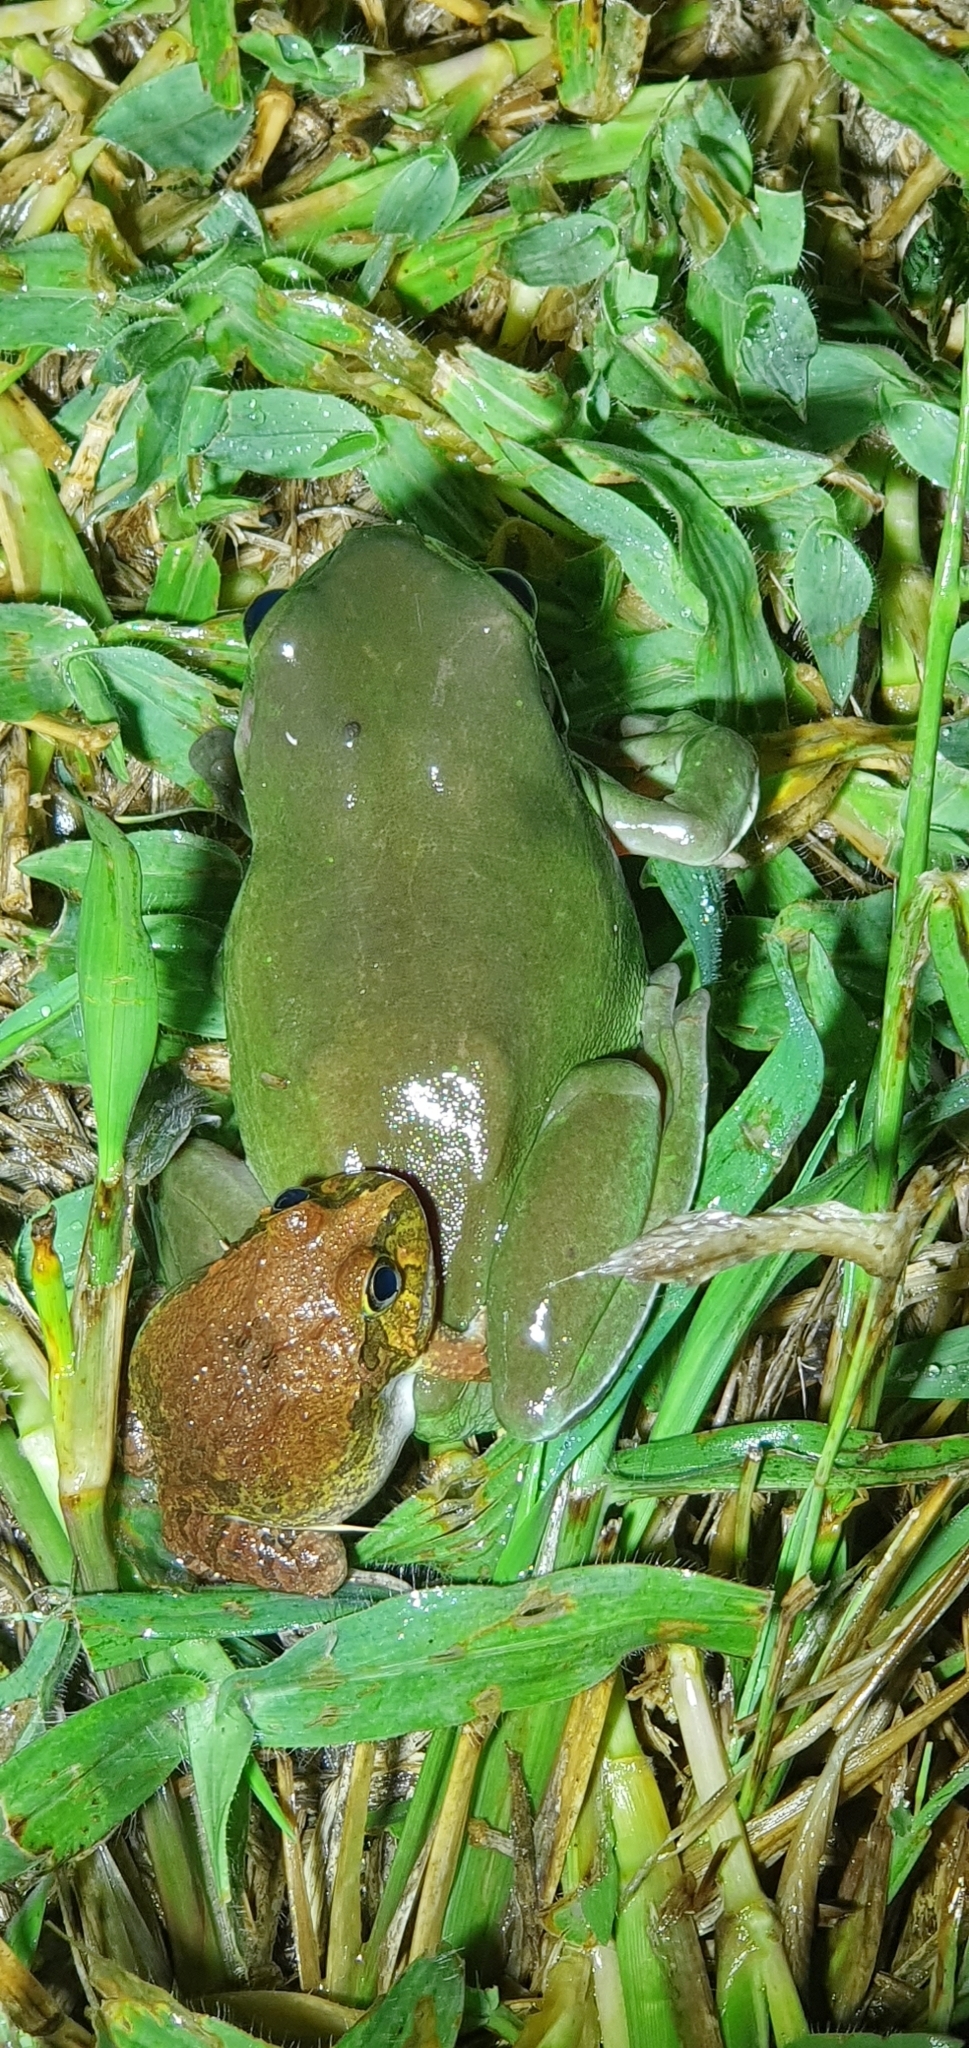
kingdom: Animalia
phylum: Chordata
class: Amphibia
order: Anura
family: Limnodynastidae
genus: Platyplectrum
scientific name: Platyplectrum ornatum
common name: Ornate burrowing frog
